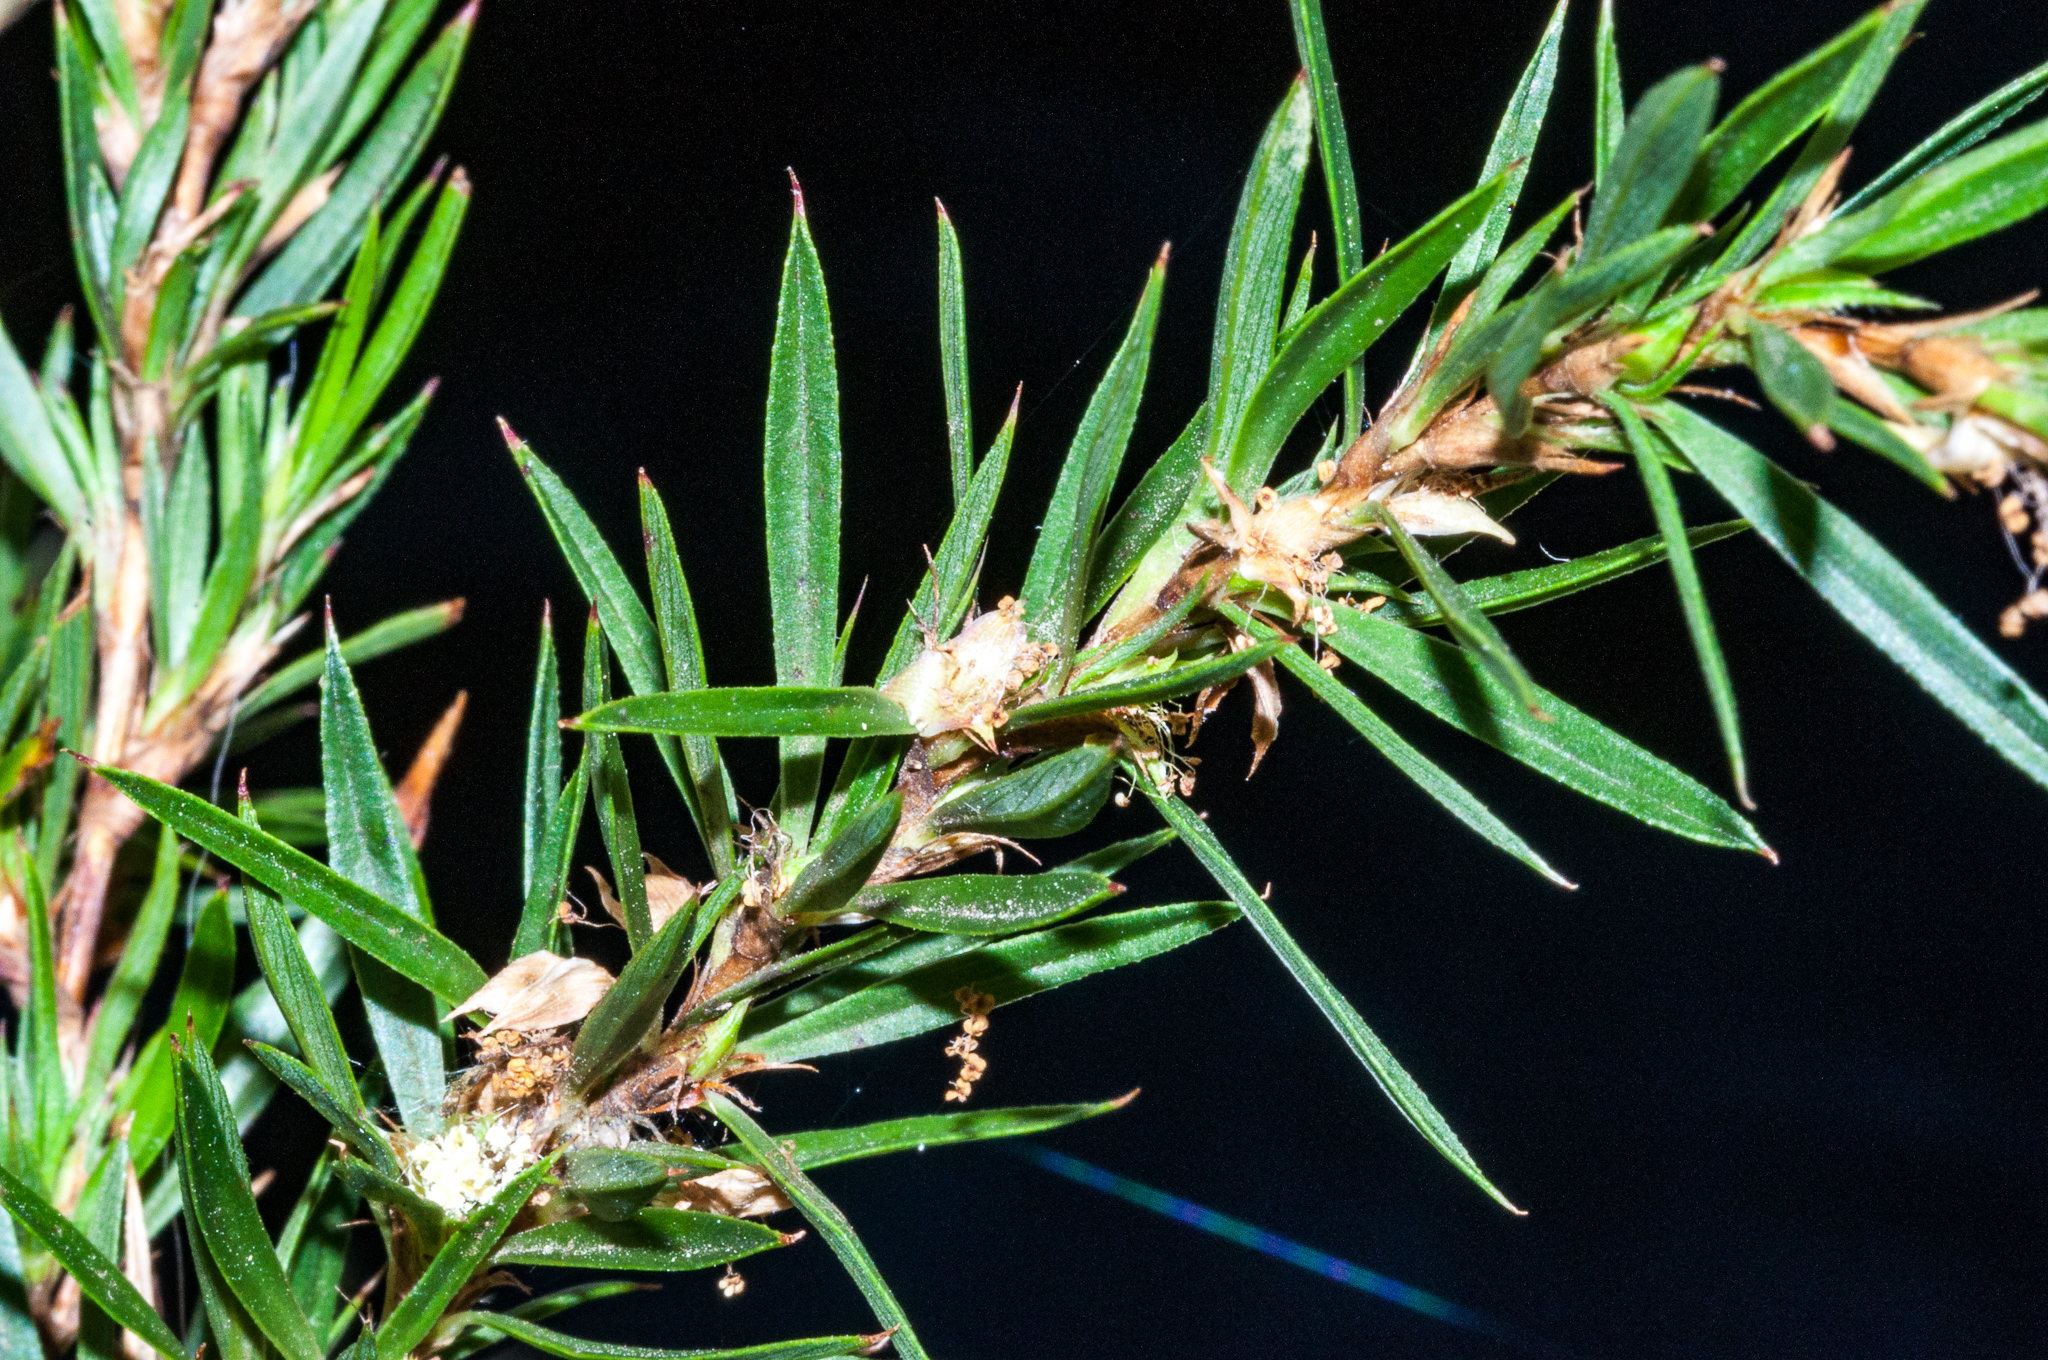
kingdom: Plantae
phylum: Tracheophyta
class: Magnoliopsida
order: Rosales
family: Rosaceae
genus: Cliffortia
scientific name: Cliffortia strobilifera
